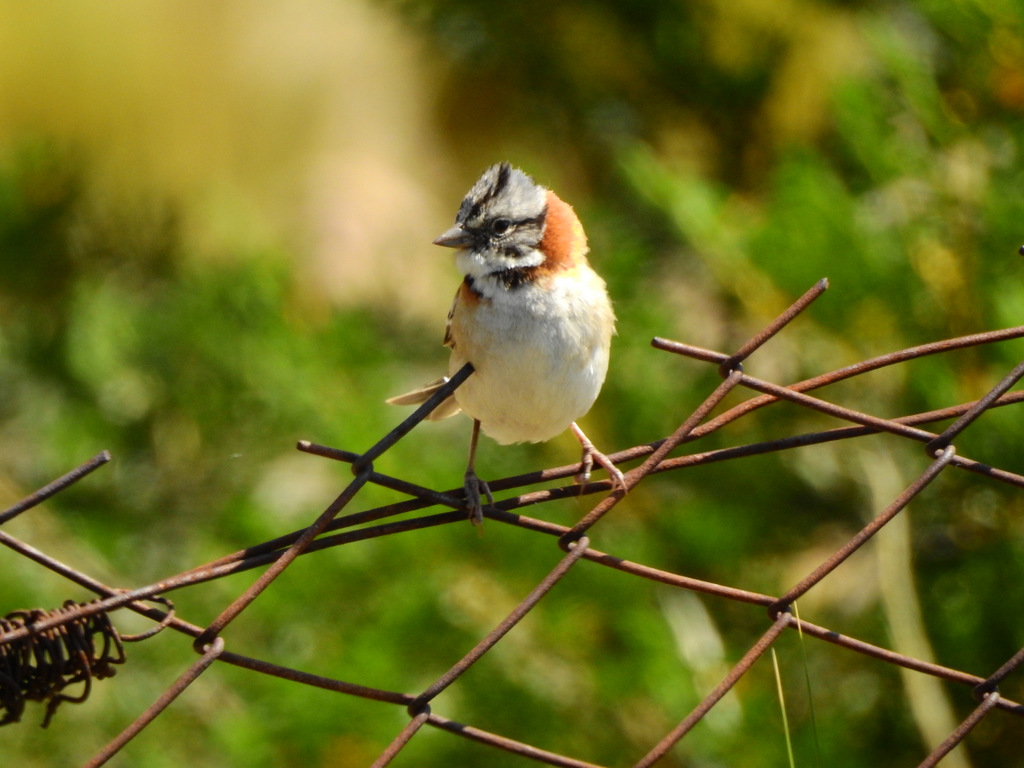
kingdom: Animalia
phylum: Chordata
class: Aves
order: Passeriformes
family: Passerellidae
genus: Zonotrichia
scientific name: Zonotrichia capensis
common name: Rufous-collared sparrow
